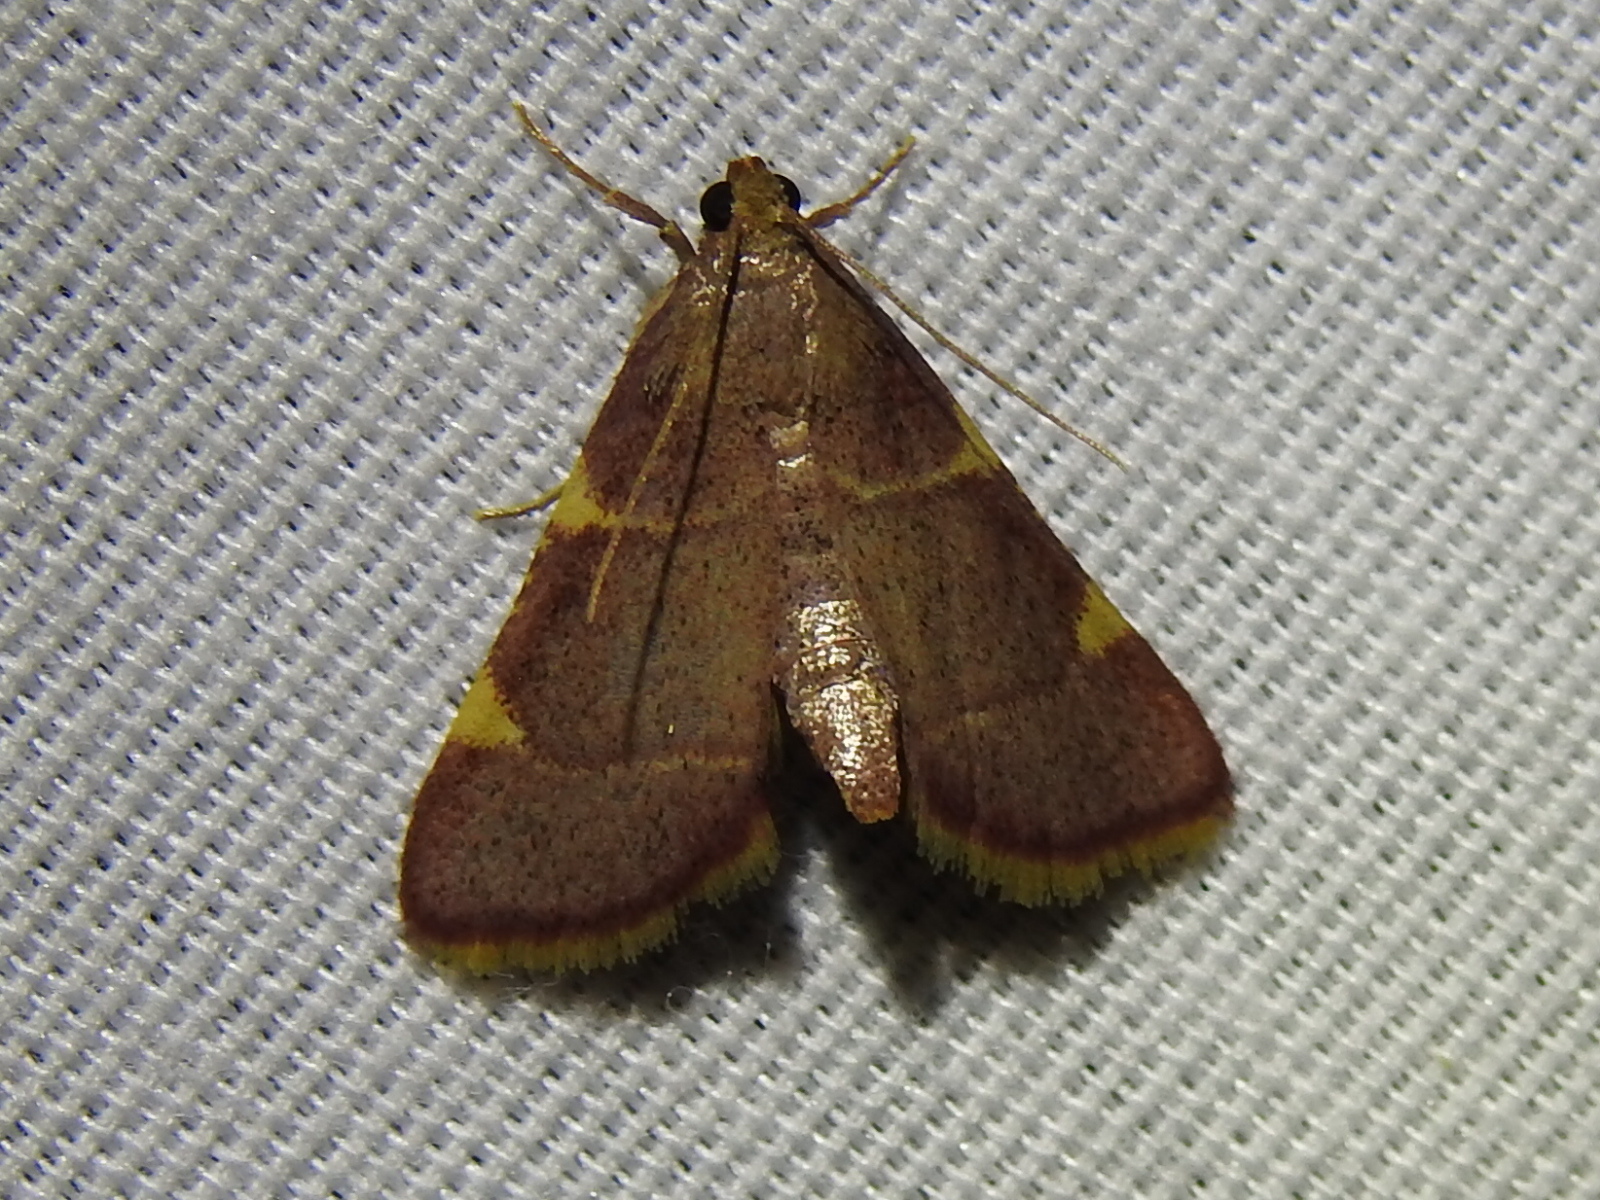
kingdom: Animalia
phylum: Arthropoda
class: Insecta
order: Lepidoptera
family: Pyralidae
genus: Hypsopygia
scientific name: Hypsopygia olinalis
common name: Yellow-fringed dolichomia moth
